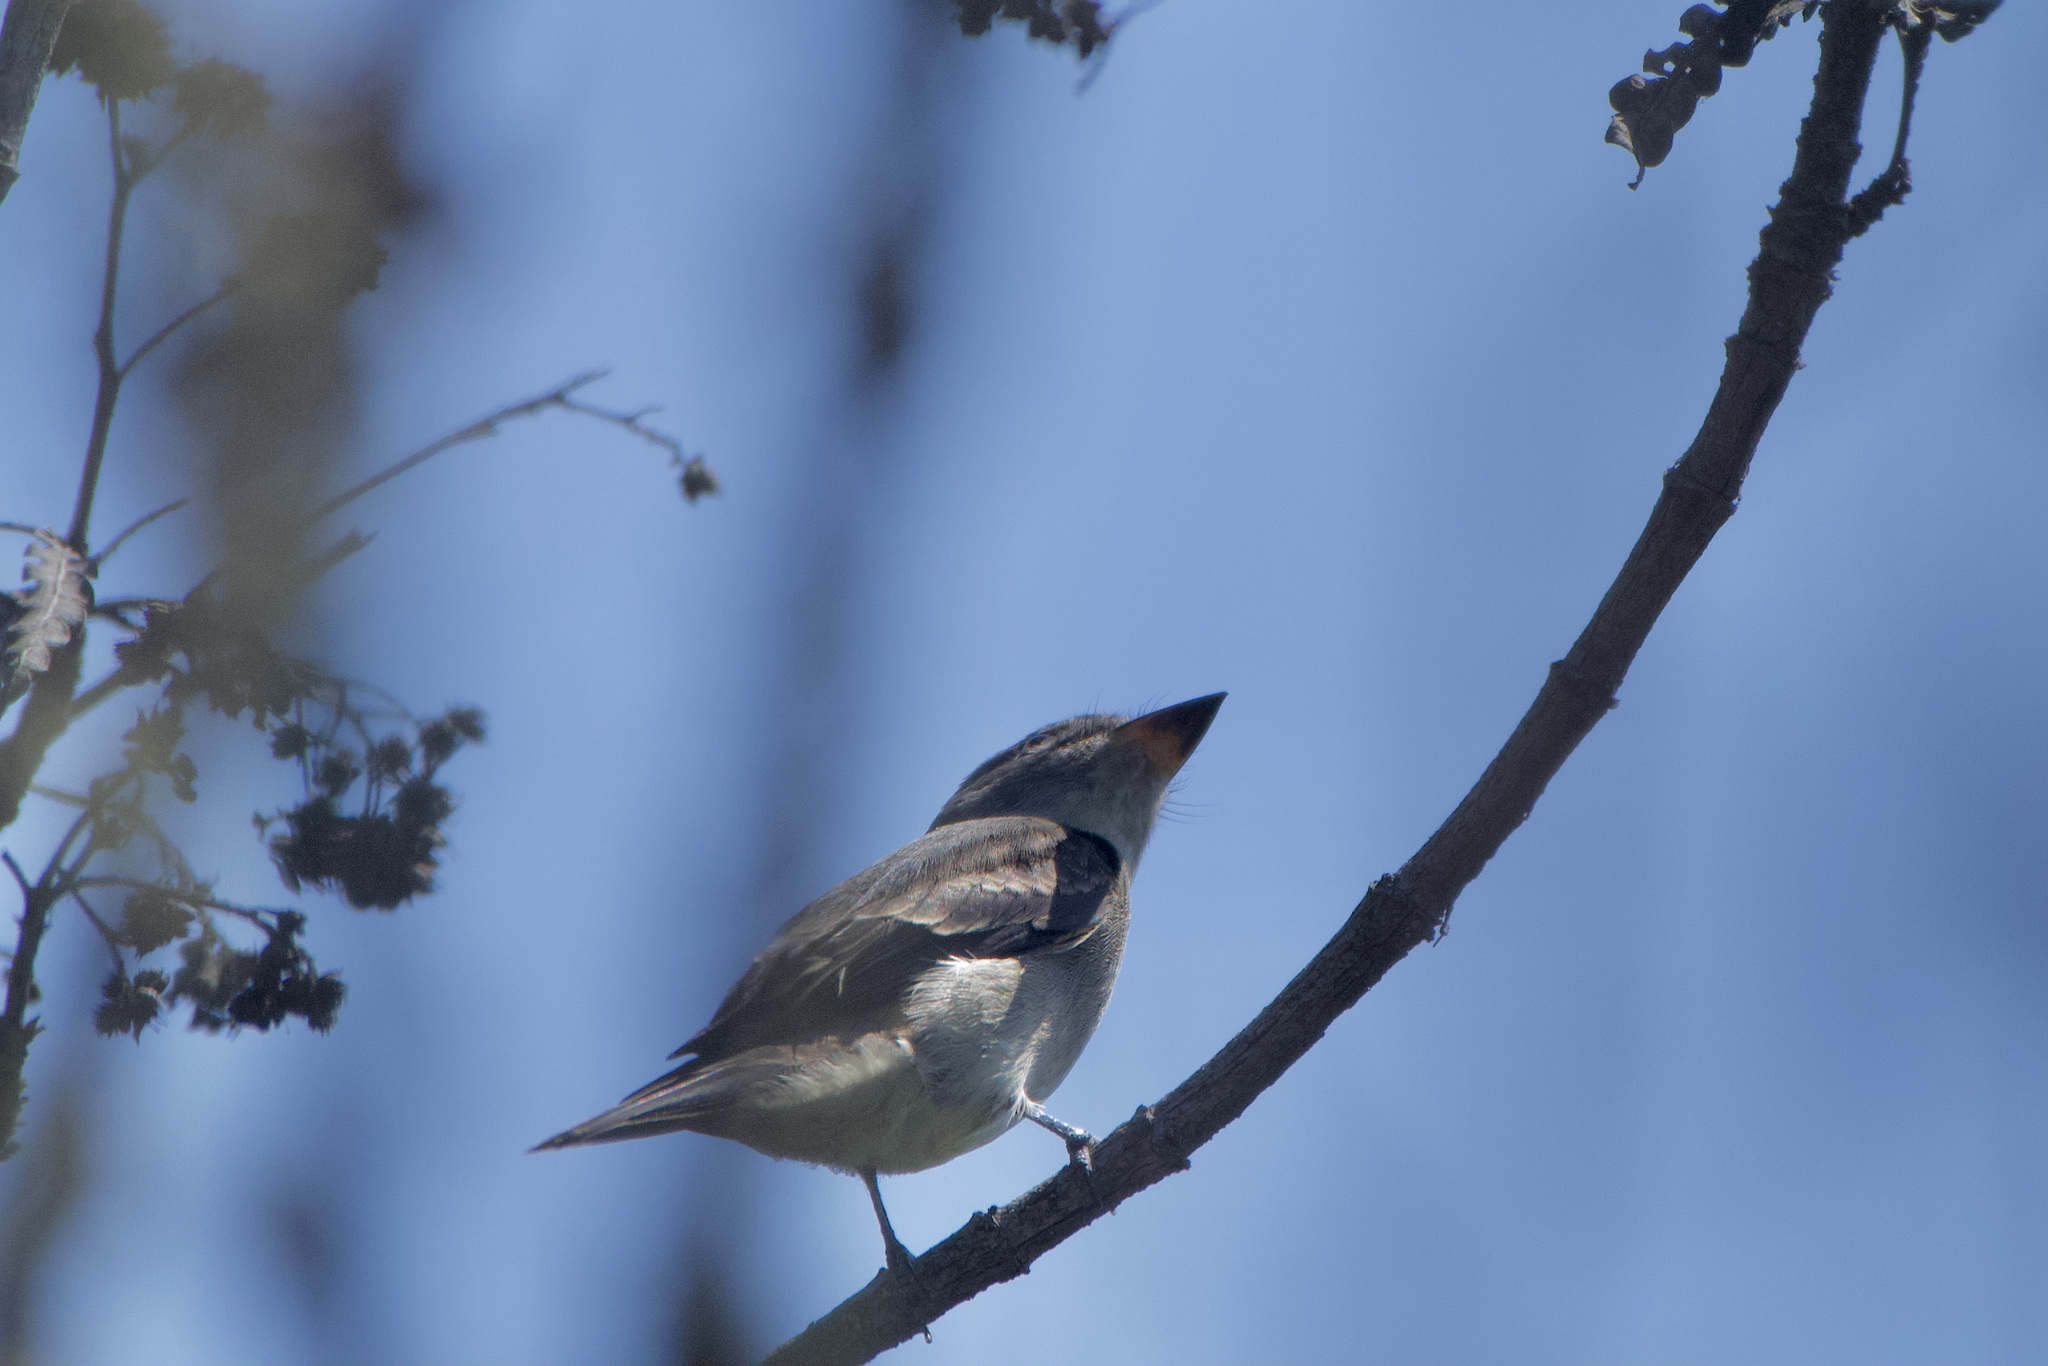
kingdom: Animalia
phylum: Chordata
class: Aves
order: Passeriformes
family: Tyrannidae
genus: Empidonax
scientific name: Empidonax traillii
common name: Willow flycatcher
